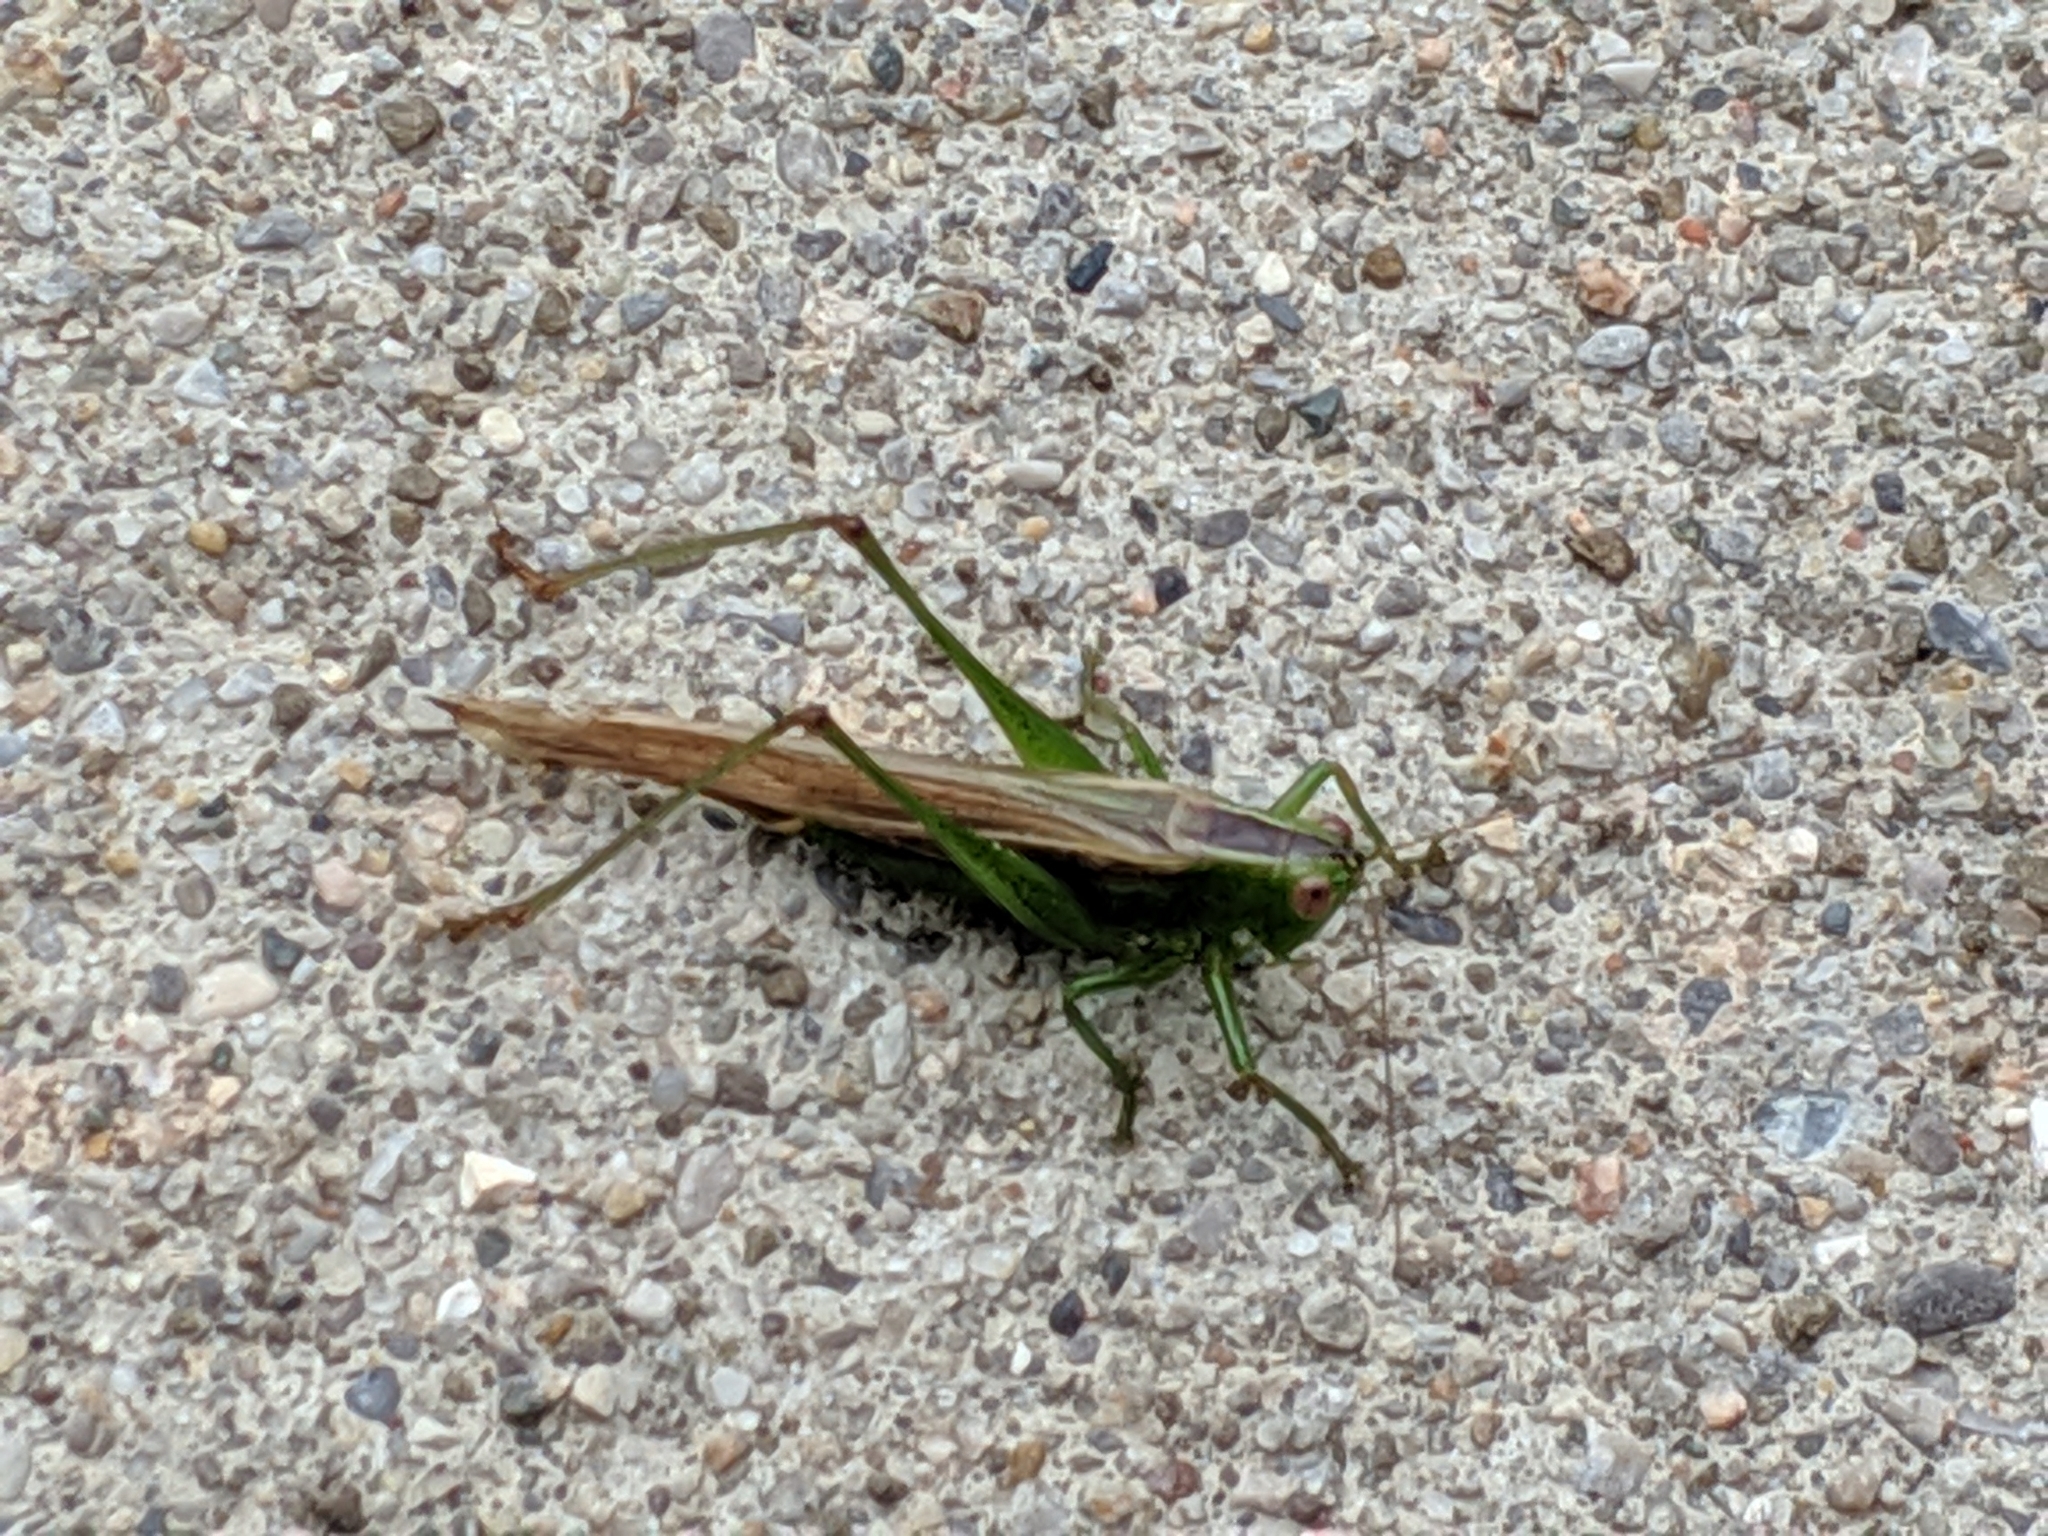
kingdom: Animalia
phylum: Arthropoda
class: Insecta
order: Orthoptera
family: Tettigoniidae
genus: Conocephalus
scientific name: Conocephalus brevipennis
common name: Short-winged meadow katydid
